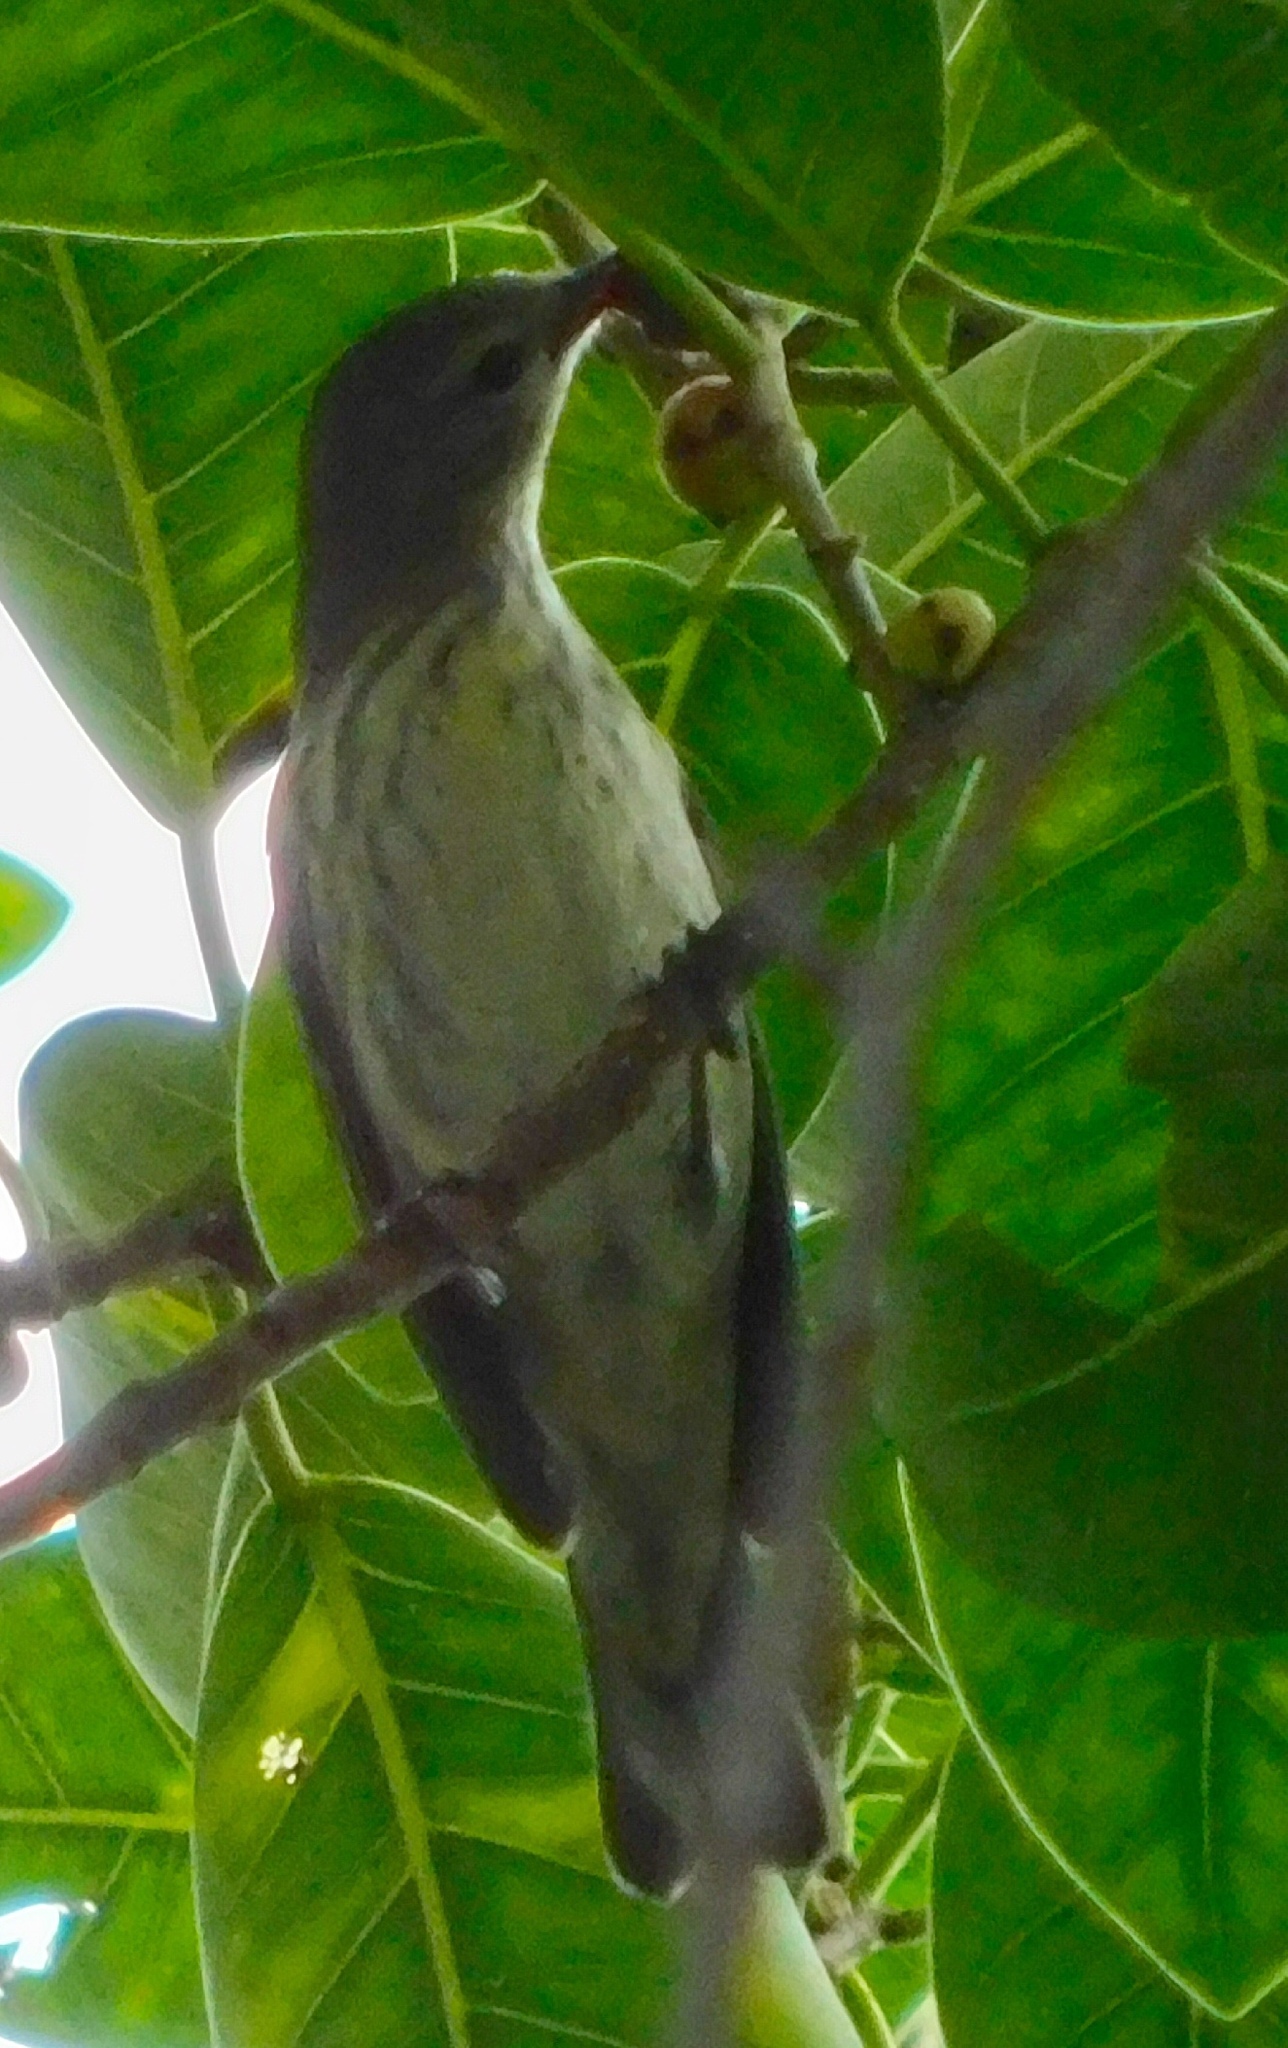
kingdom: Animalia
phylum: Chordata
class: Aves
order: Passeriformes
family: Parulidae
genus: Setophaga
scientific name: Setophaga tigrina
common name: Cape may warbler
